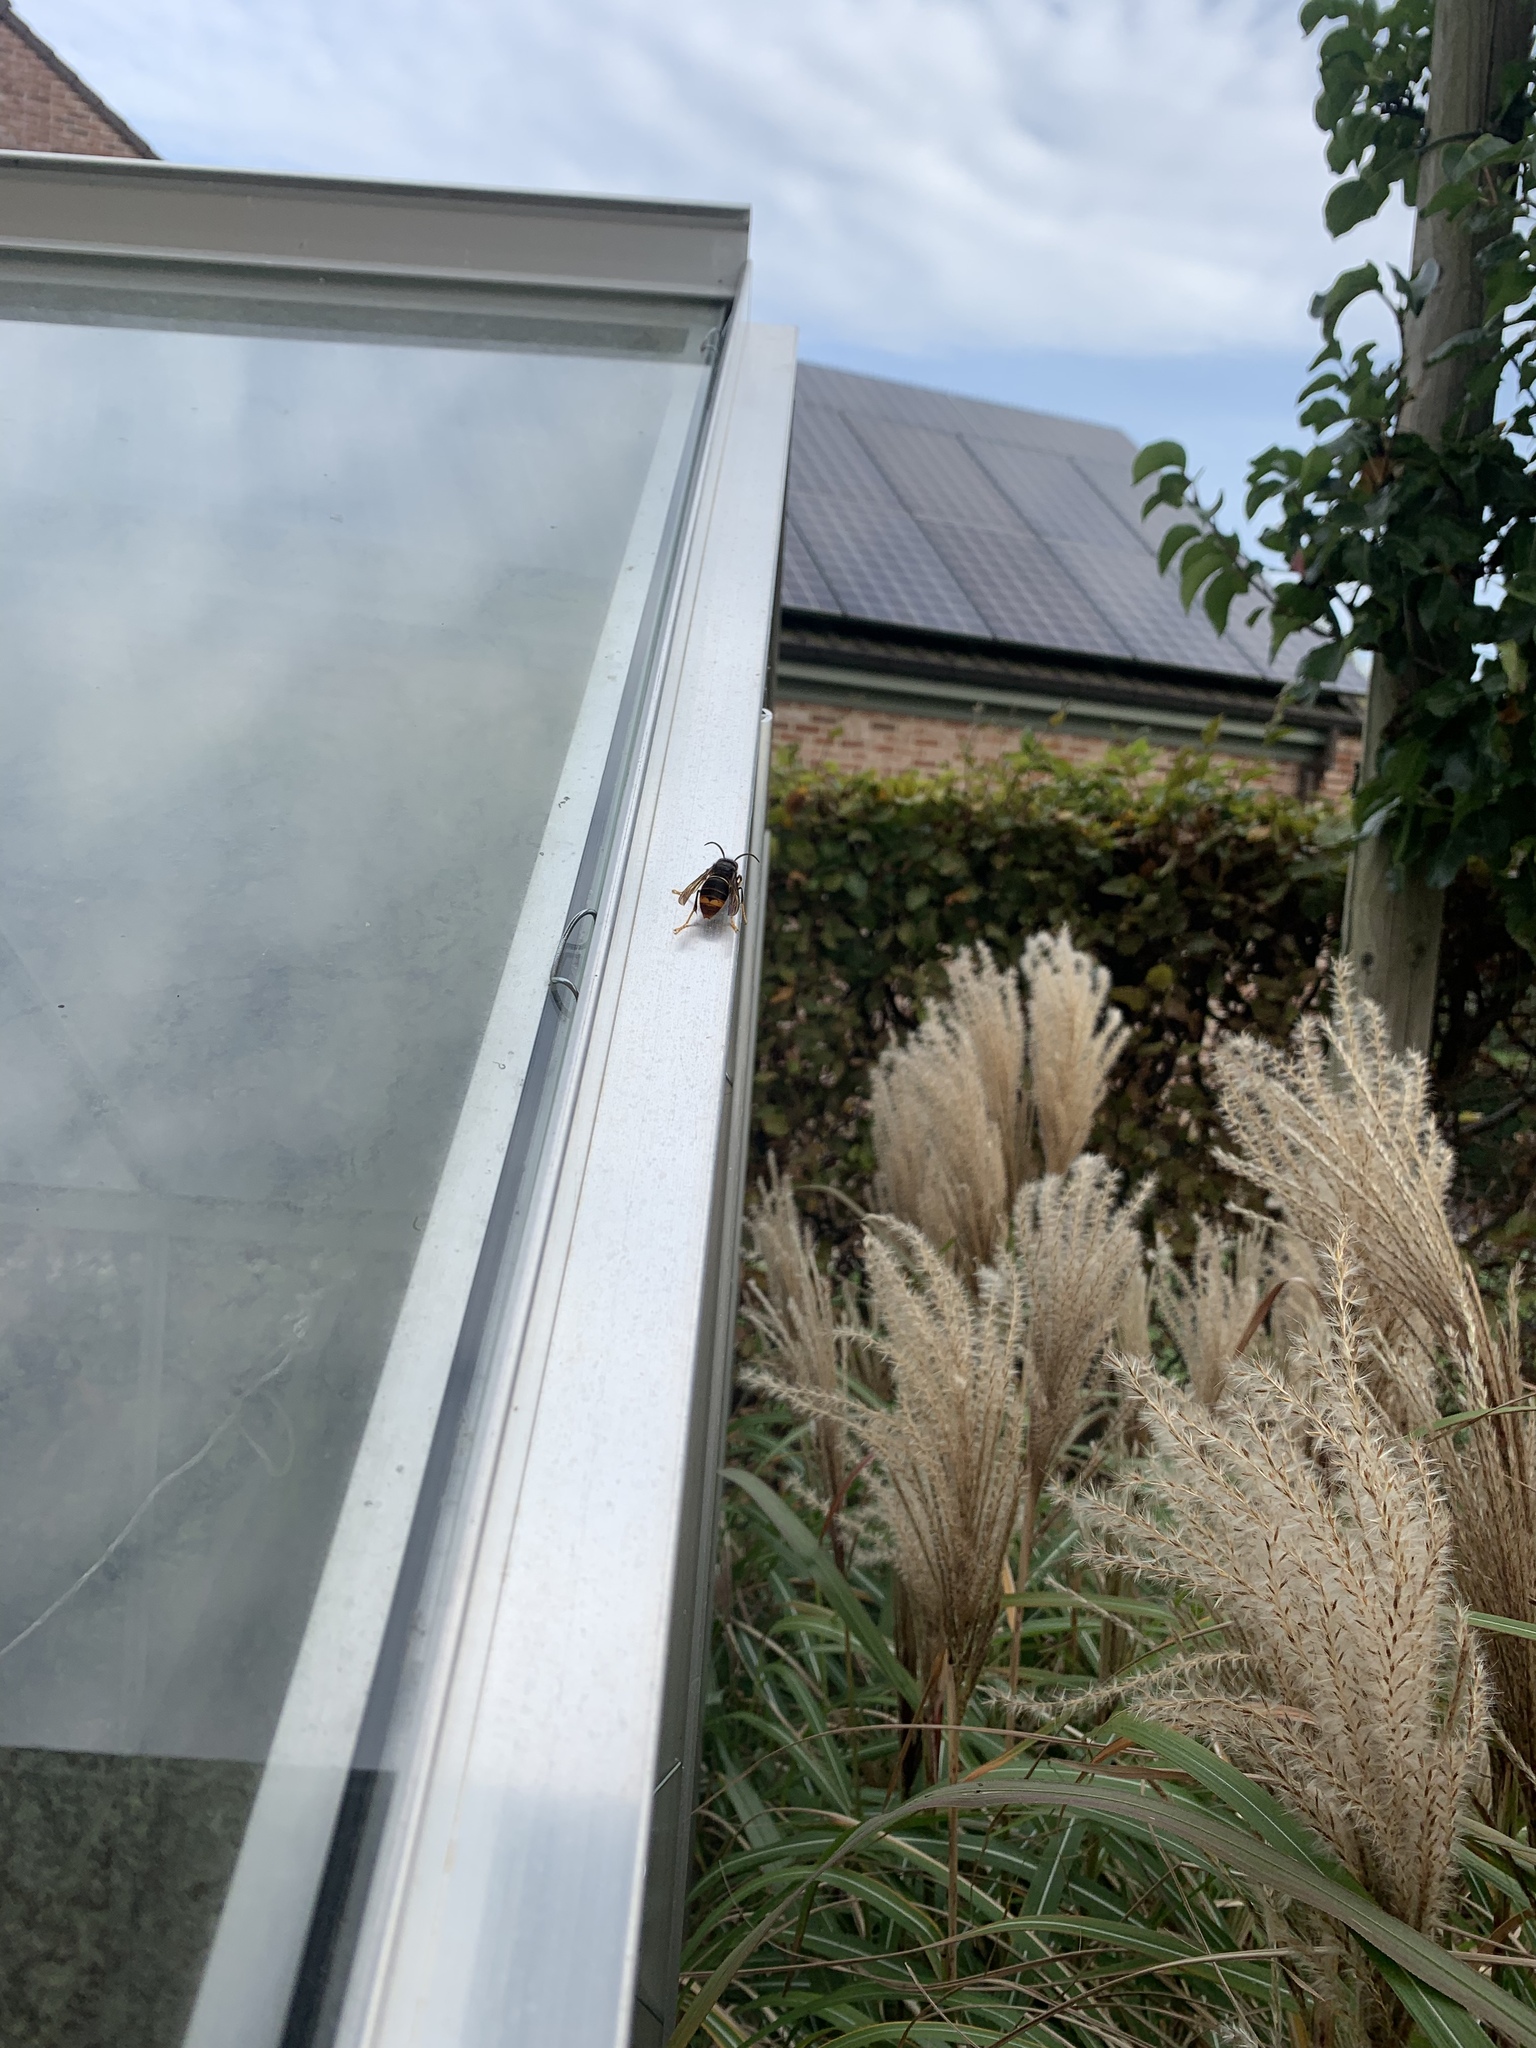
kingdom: Animalia
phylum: Arthropoda
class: Insecta
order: Hymenoptera
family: Vespidae
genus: Vespa
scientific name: Vespa velutina
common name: Asian hornet
